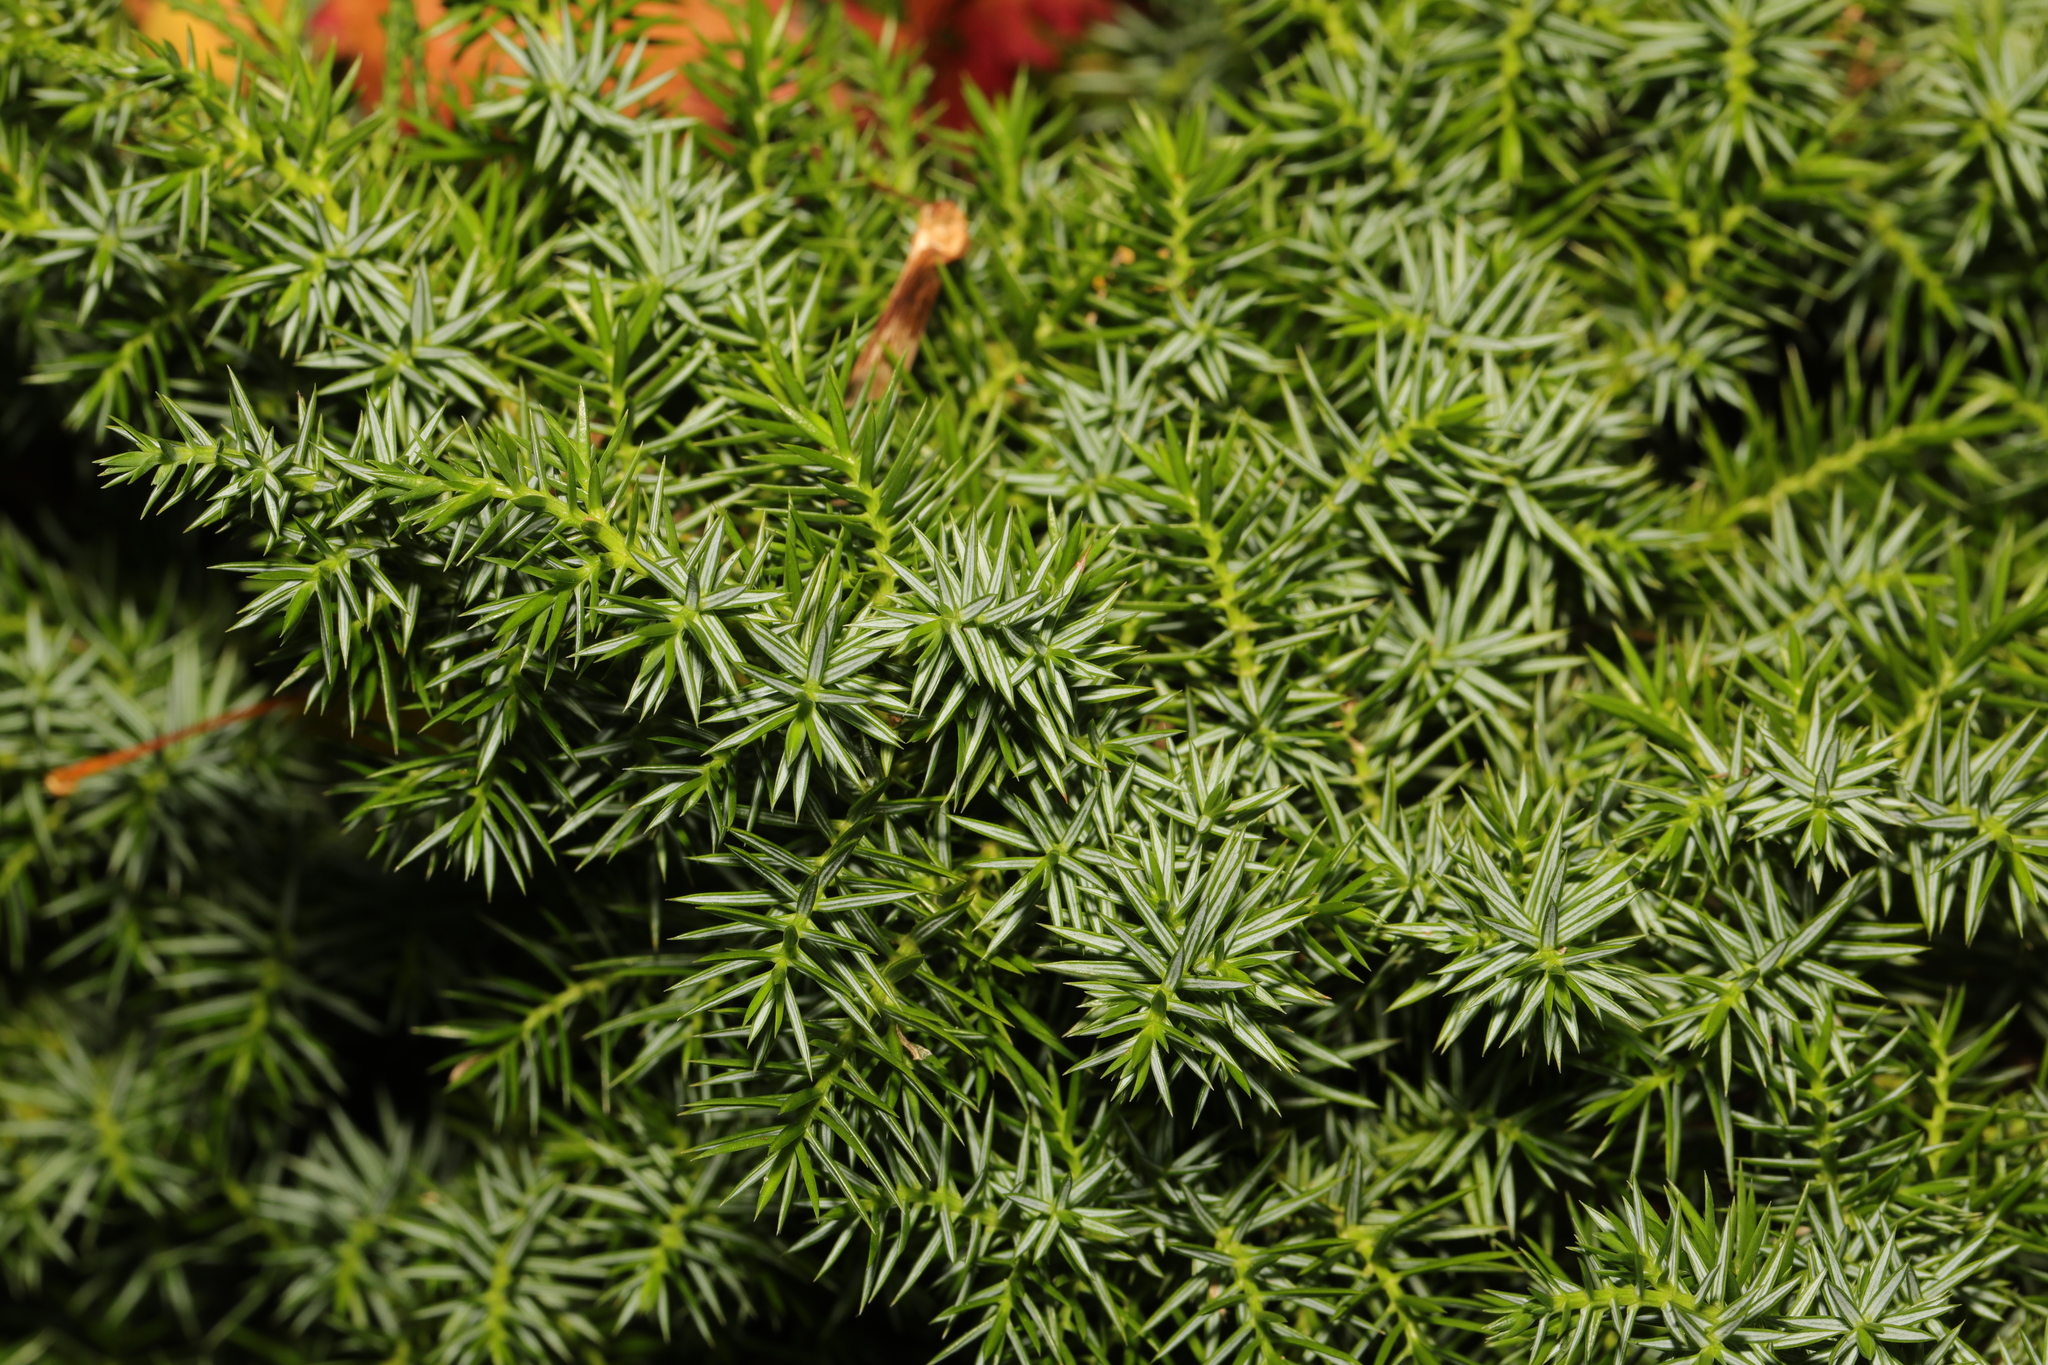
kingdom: Plantae
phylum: Tracheophyta
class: Pinopsida
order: Pinales
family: Cupressaceae
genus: Juniperus
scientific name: Juniperus communis
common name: Common juniper
